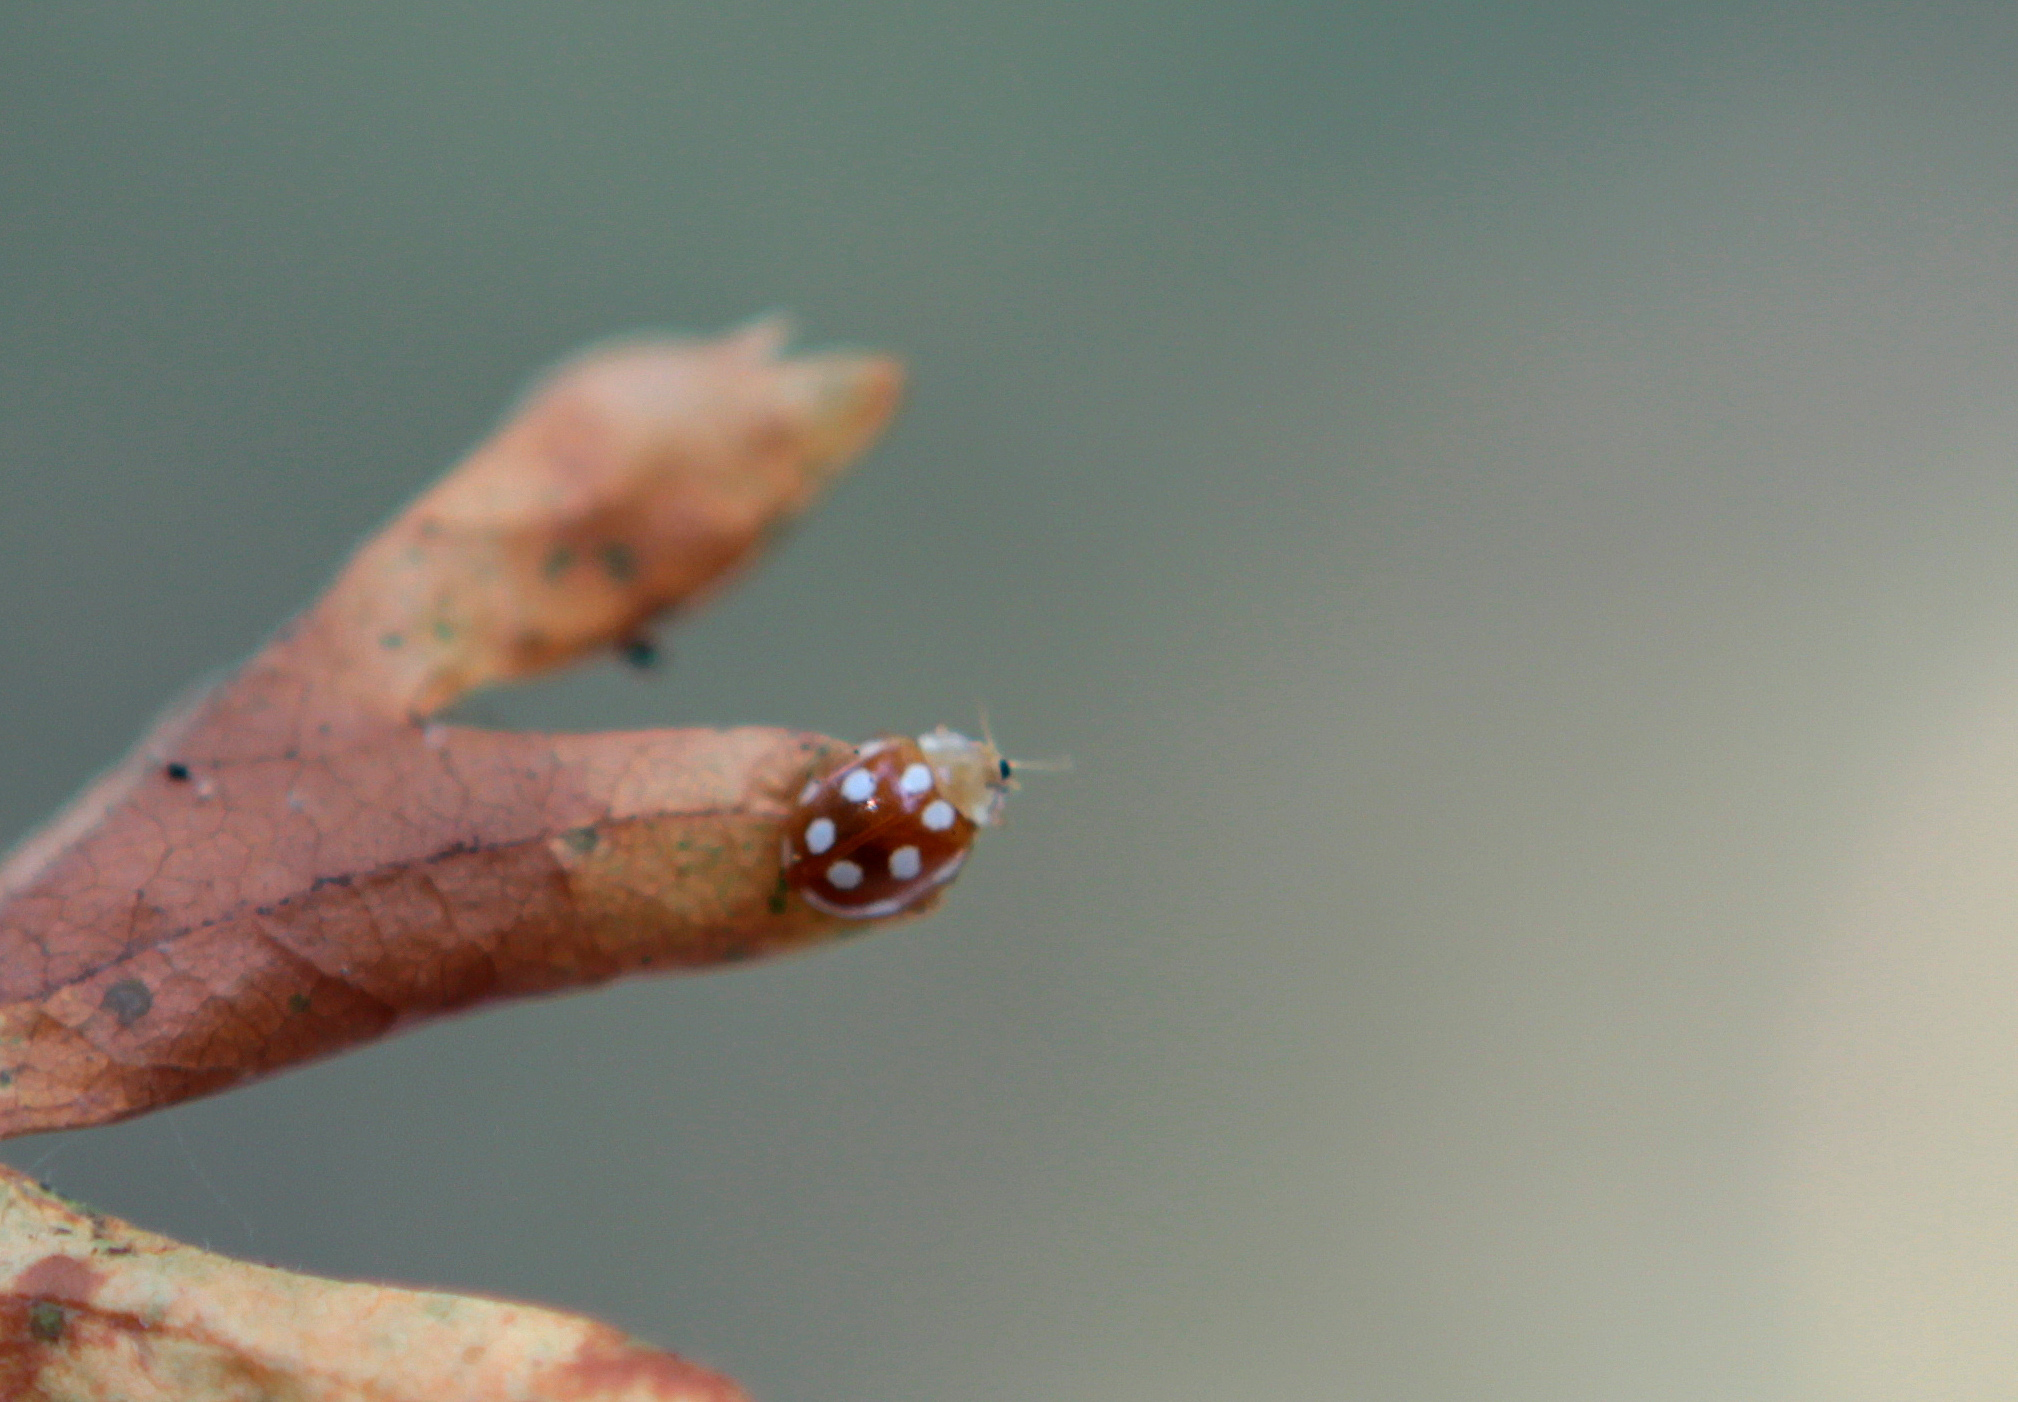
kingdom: Animalia
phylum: Arthropoda
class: Insecta
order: Coleoptera
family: Coccinellidae
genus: Vibidia
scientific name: Vibidia duodecimguttata
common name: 12-spot ladybird
